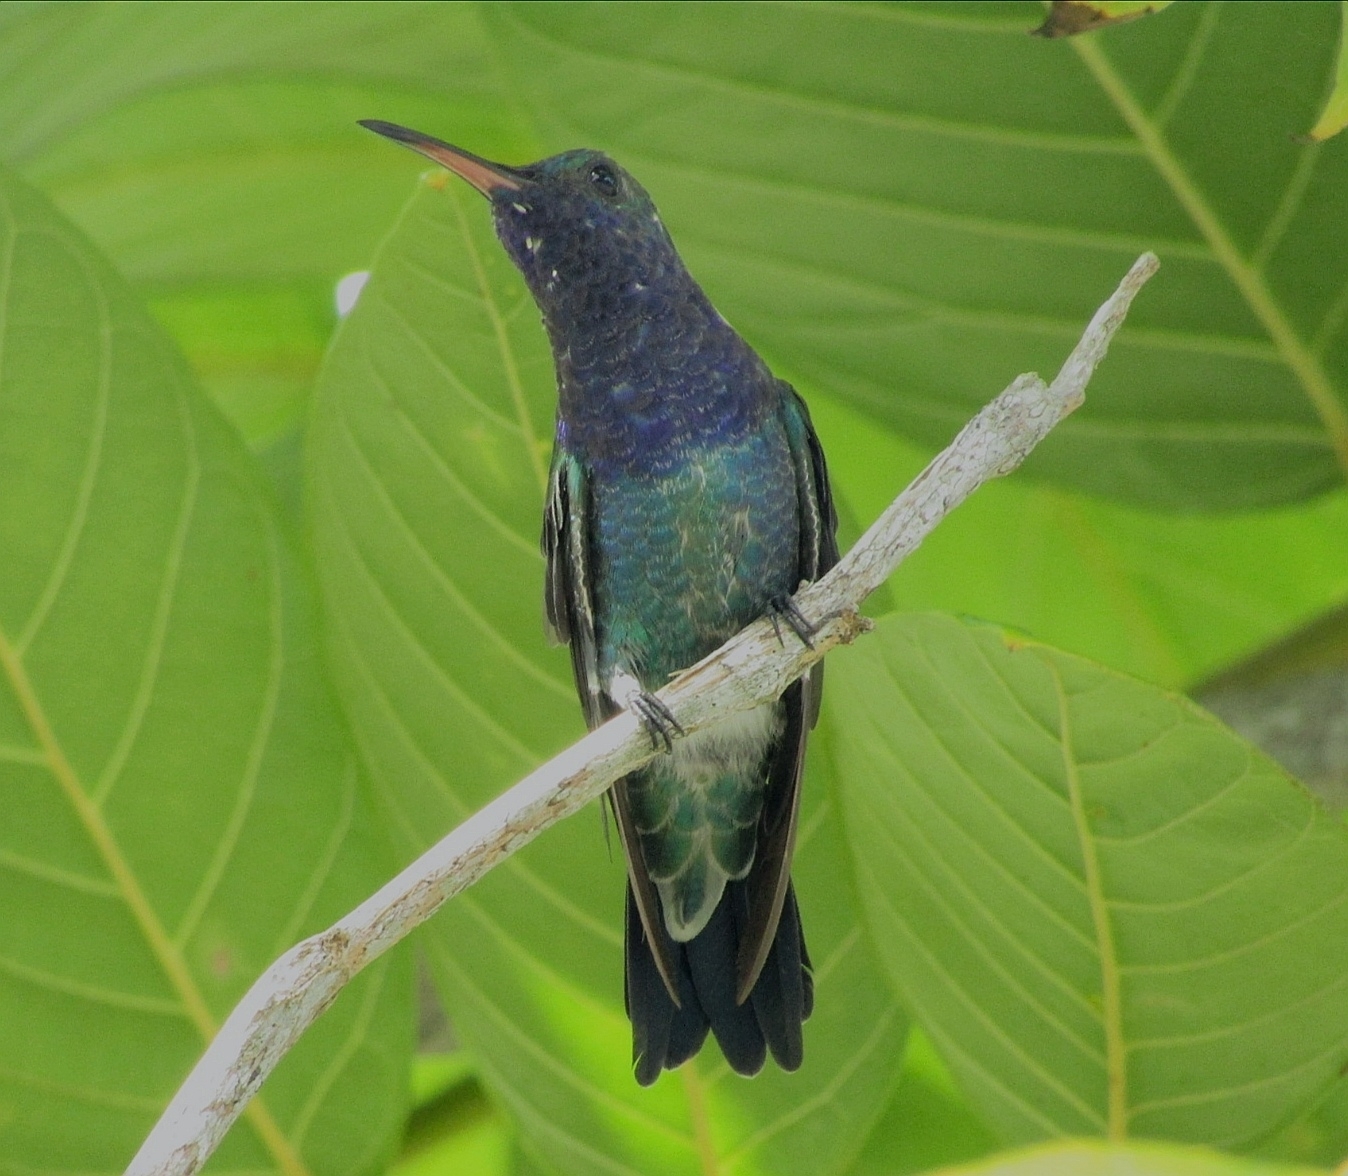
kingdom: Animalia
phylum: Chordata
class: Aves
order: Apodiformes
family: Trochilidae
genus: Chrysuronia
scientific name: Chrysuronia coeruleogularis
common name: Sapphire-throated hummingbird
